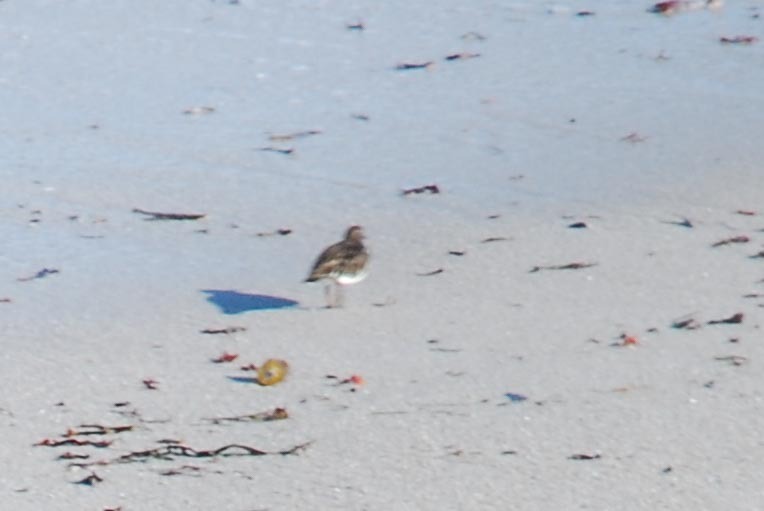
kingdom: Animalia
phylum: Chordata
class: Aves
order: Charadriiformes
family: Scolopacidae
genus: Arenaria
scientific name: Arenaria melanocephala
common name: Black turnstone
